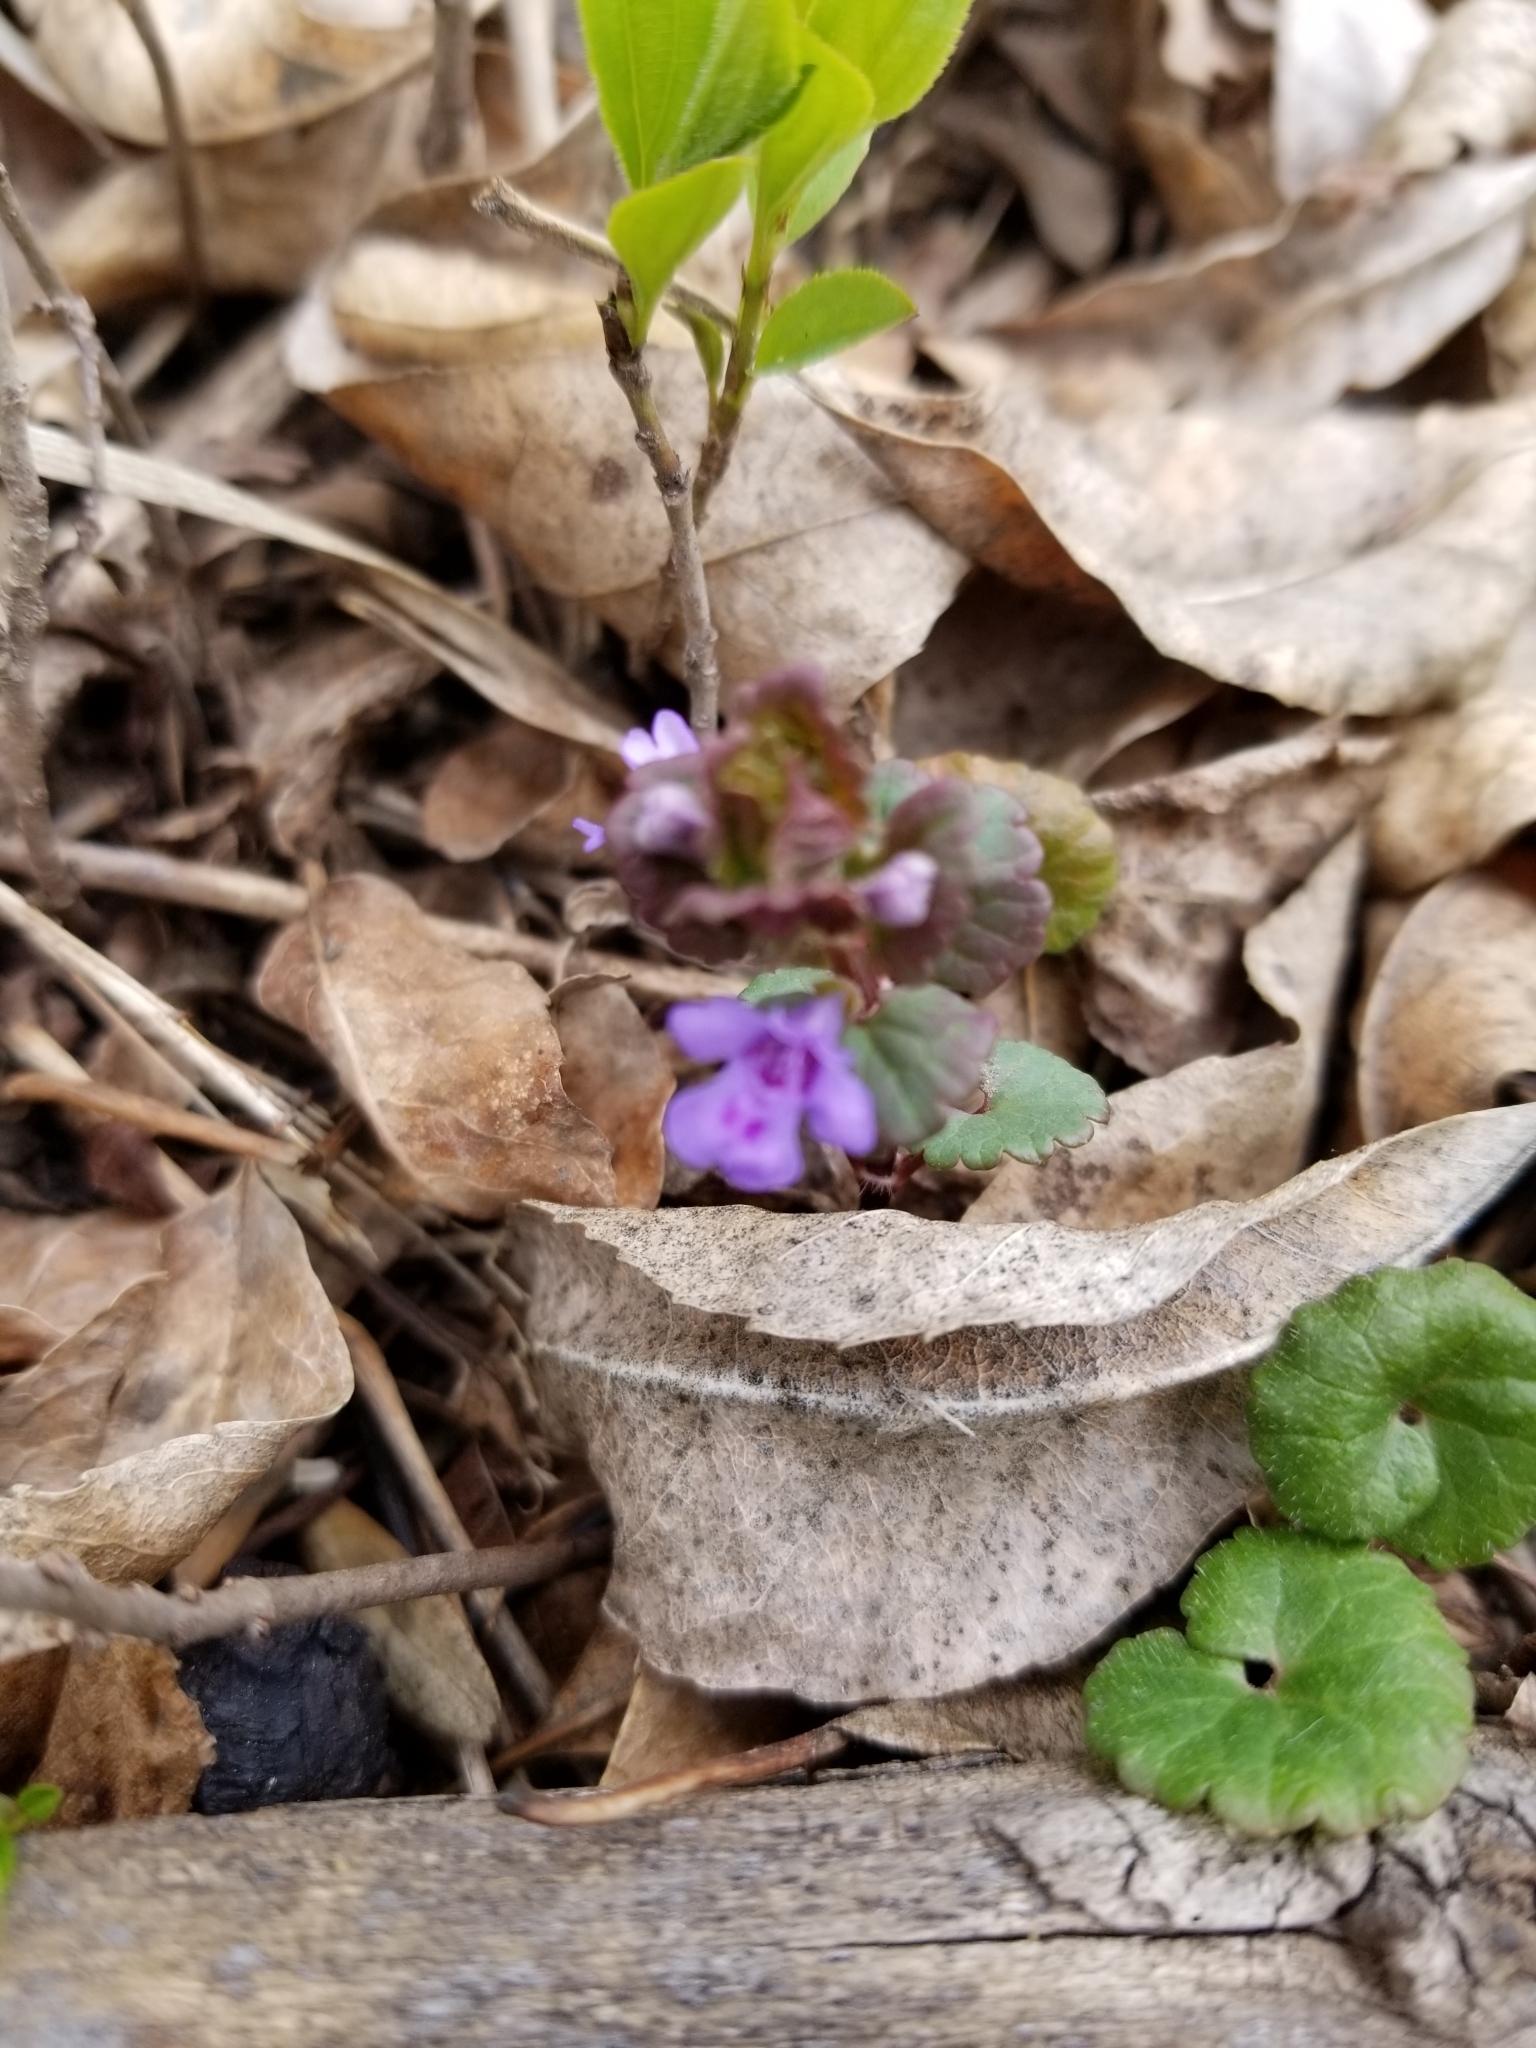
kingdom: Plantae
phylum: Tracheophyta
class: Magnoliopsida
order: Lamiales
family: Lamiaceae
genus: Glechoma
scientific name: Glechoma hederacea
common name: Ground ivy
